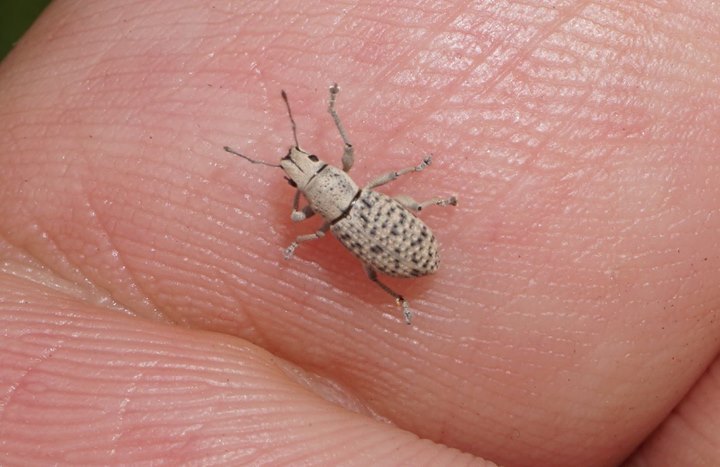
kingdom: Animalia
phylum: Arthropoda
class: Insecta
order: Coleoptera
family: Curculionidae
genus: Artipus
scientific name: Artipus floridanus
